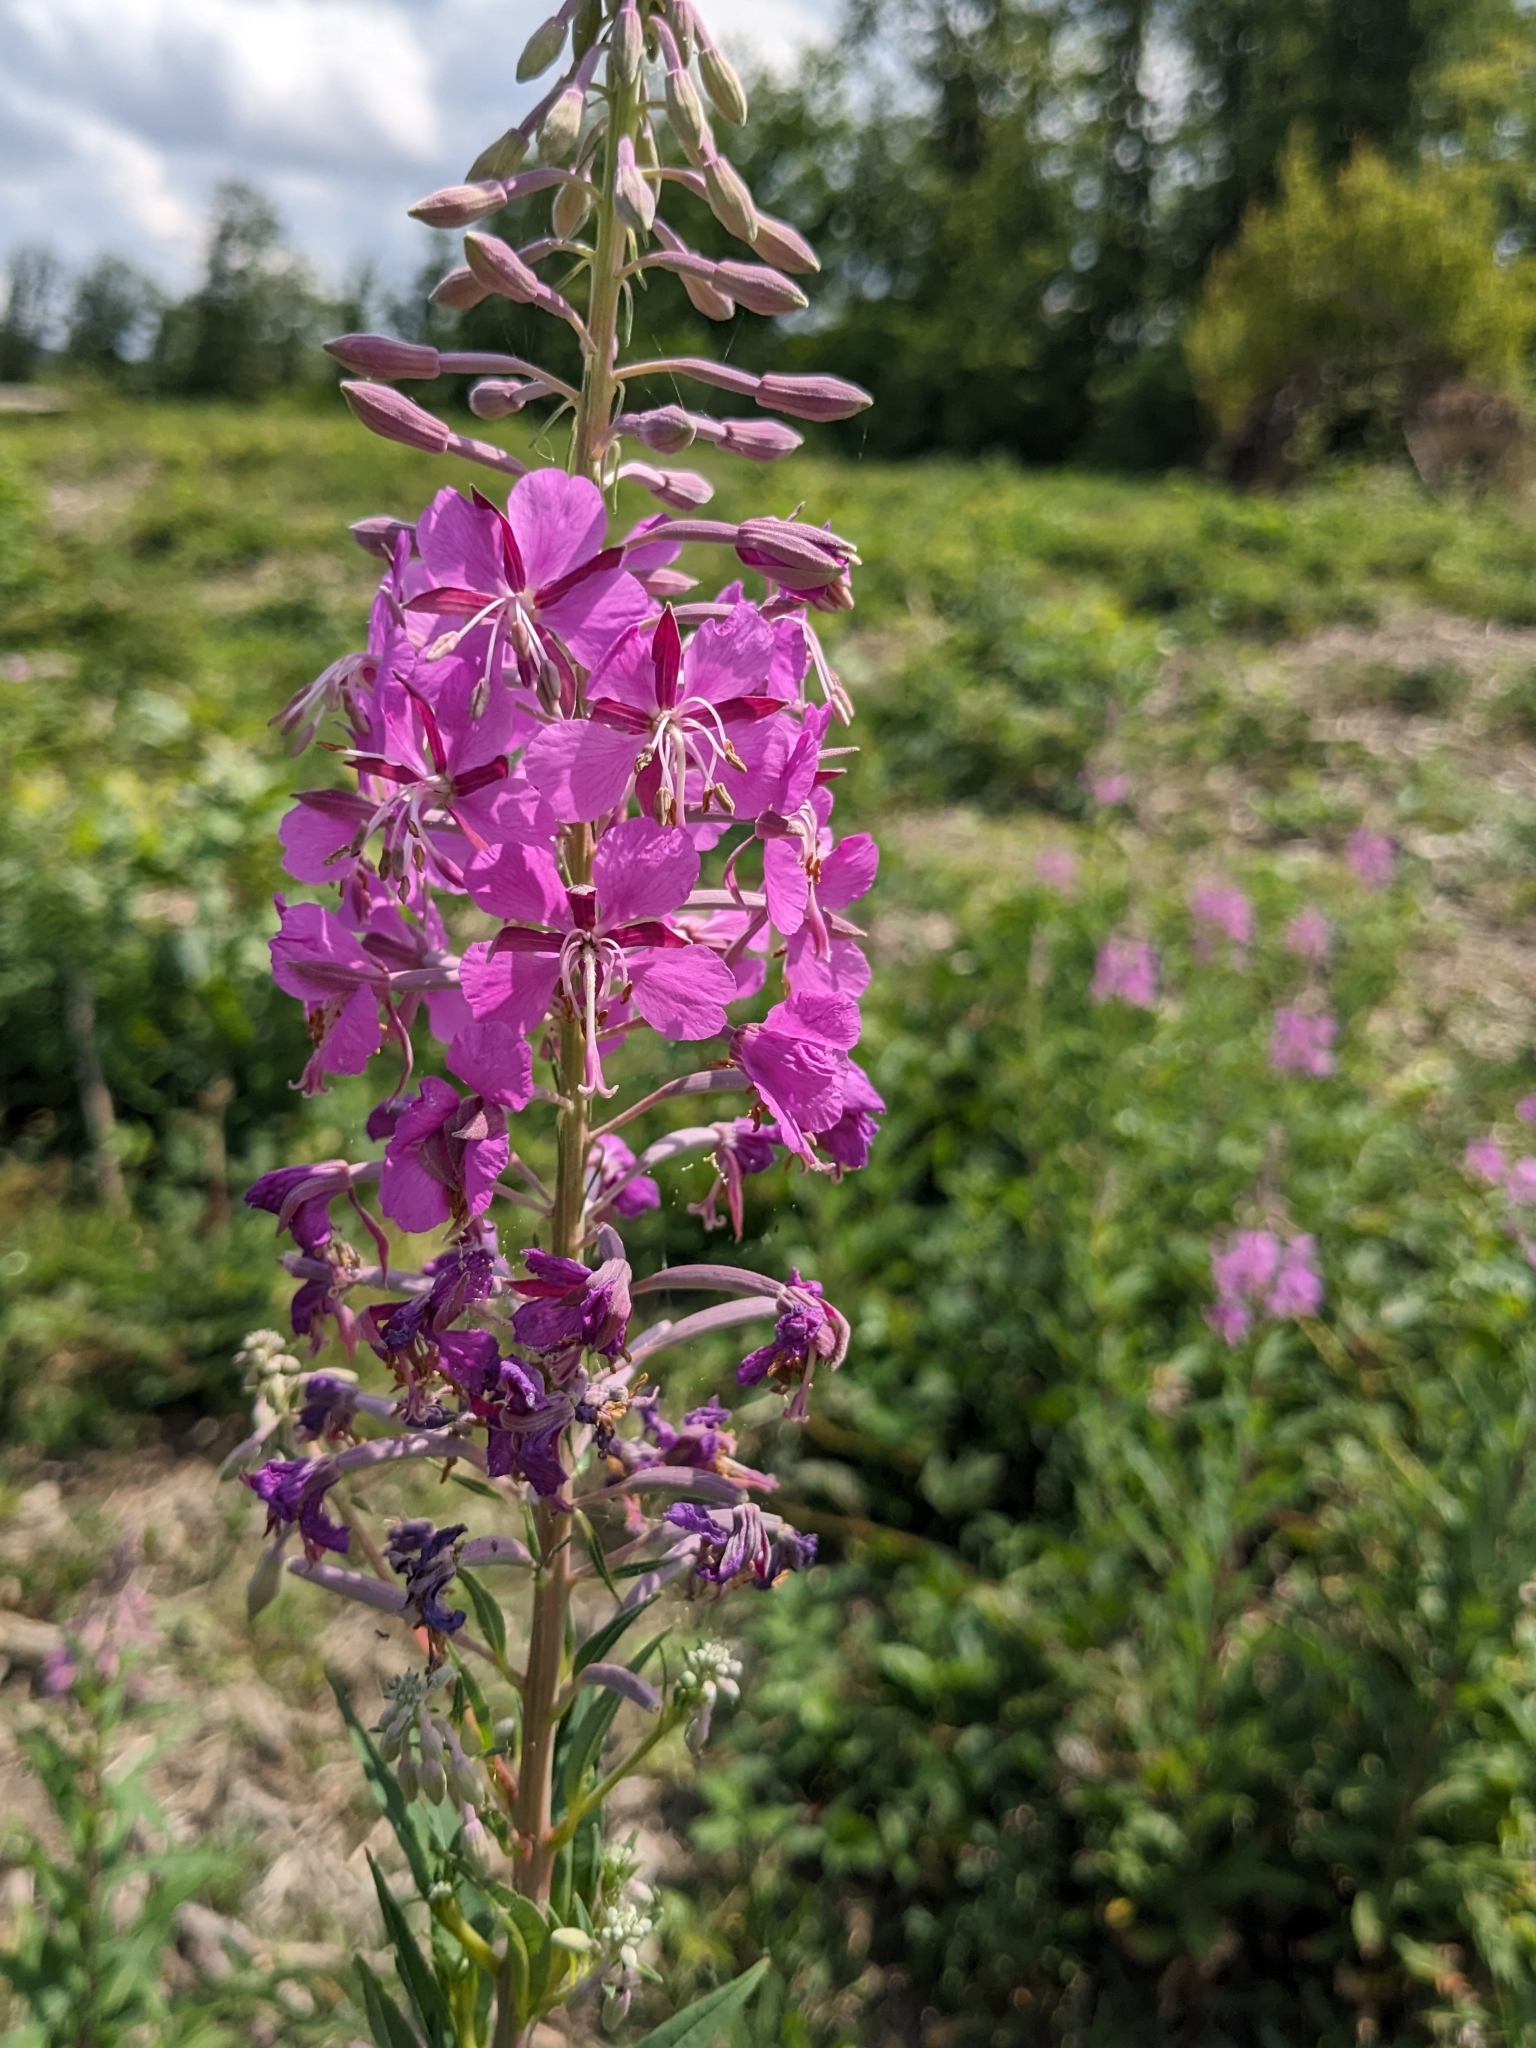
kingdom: Plantae
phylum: Tracheophyta
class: Magnoliopsida
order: Myrtales
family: Onagraceae
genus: Chamaenerion
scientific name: Chamaenerion angustifolium
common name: Fireweed
